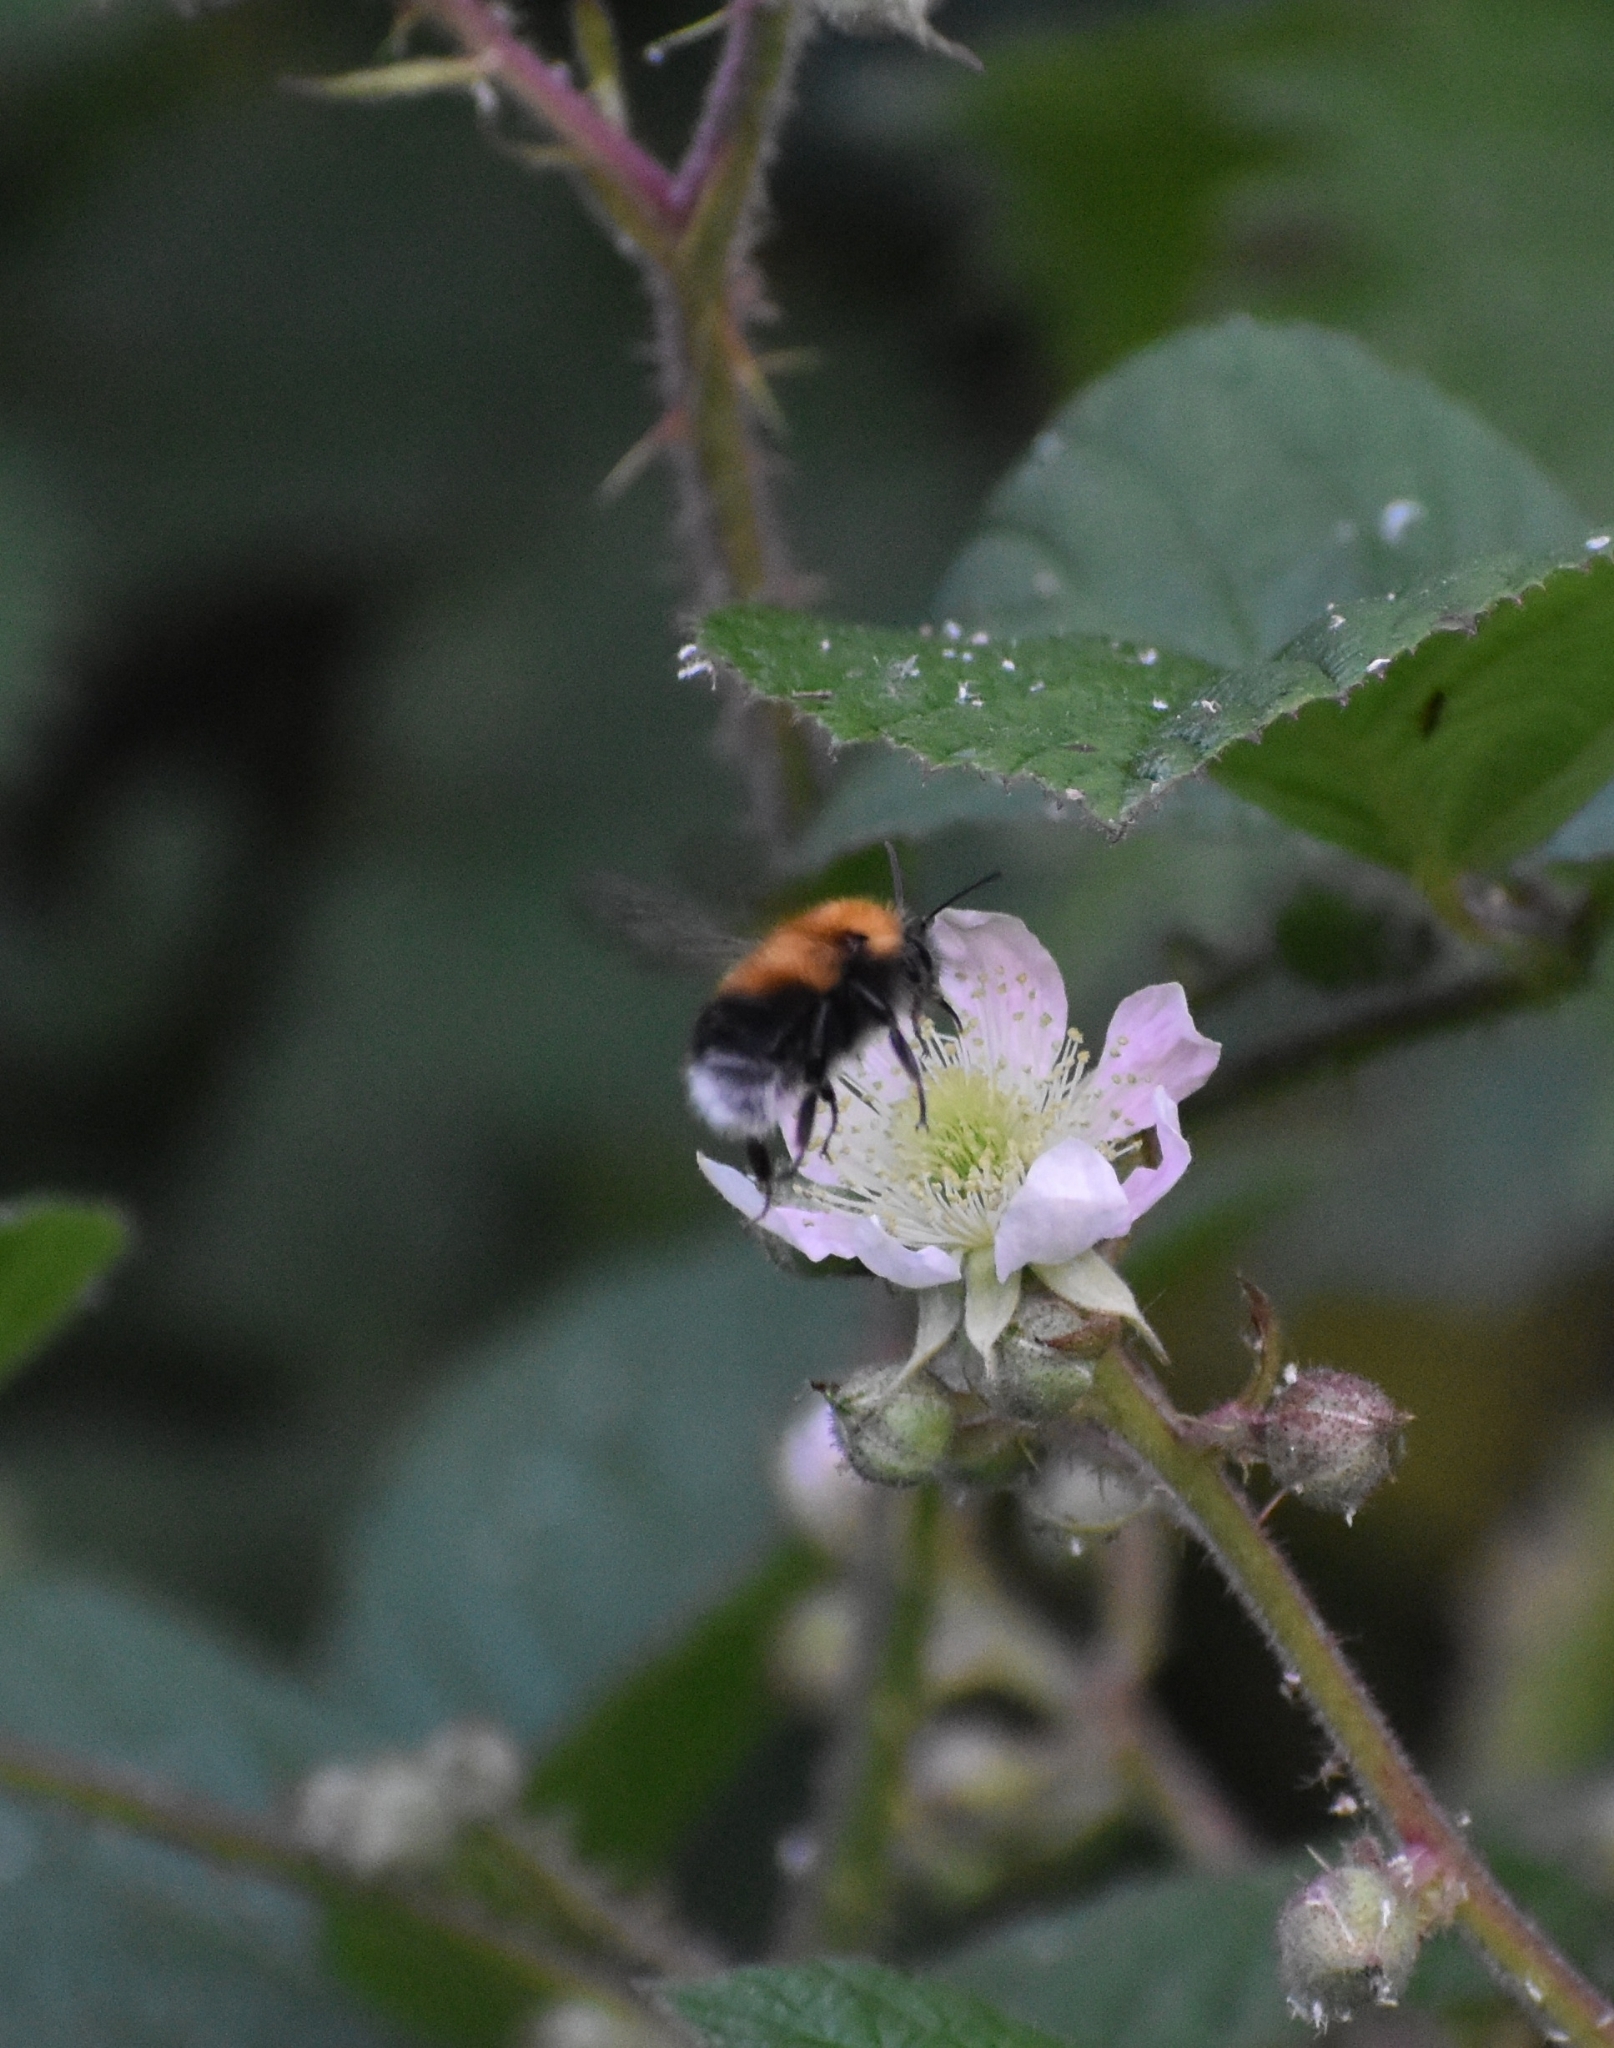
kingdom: Animalia
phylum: Arthropoda
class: Insecta
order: Hymenoptera
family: Apidae
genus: Bombus
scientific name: Bombus hypnorum
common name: New garden bumblebee
